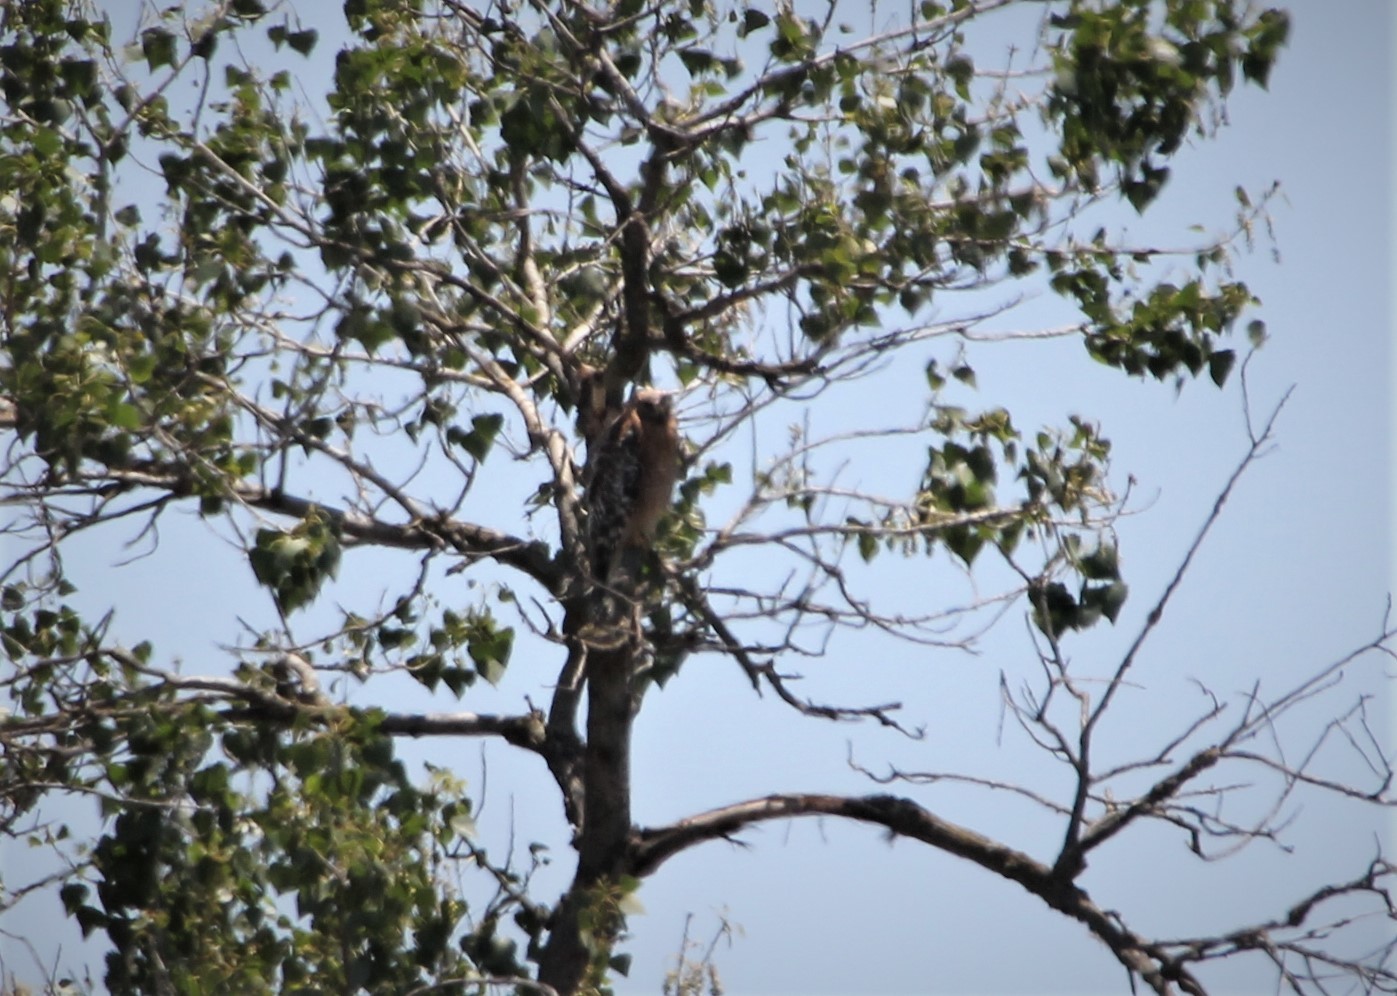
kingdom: Animalia
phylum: Chordata
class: Aves
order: Accipitriformes
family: Accipitridae
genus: Buteo
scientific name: Buteo lineatus
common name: Red-shouldered hawk
